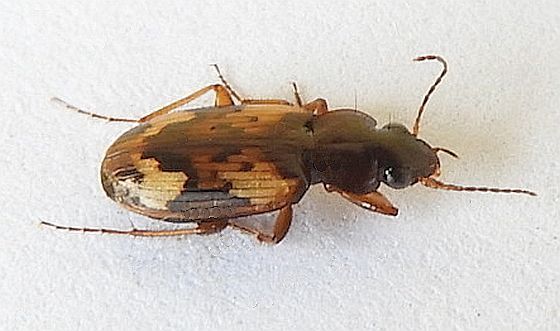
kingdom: Animalia
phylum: Arthropoda
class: Insecta
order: Coleoptera
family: Carabidae
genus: Tetragonoderus
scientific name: Tetragonoderus intersectus
